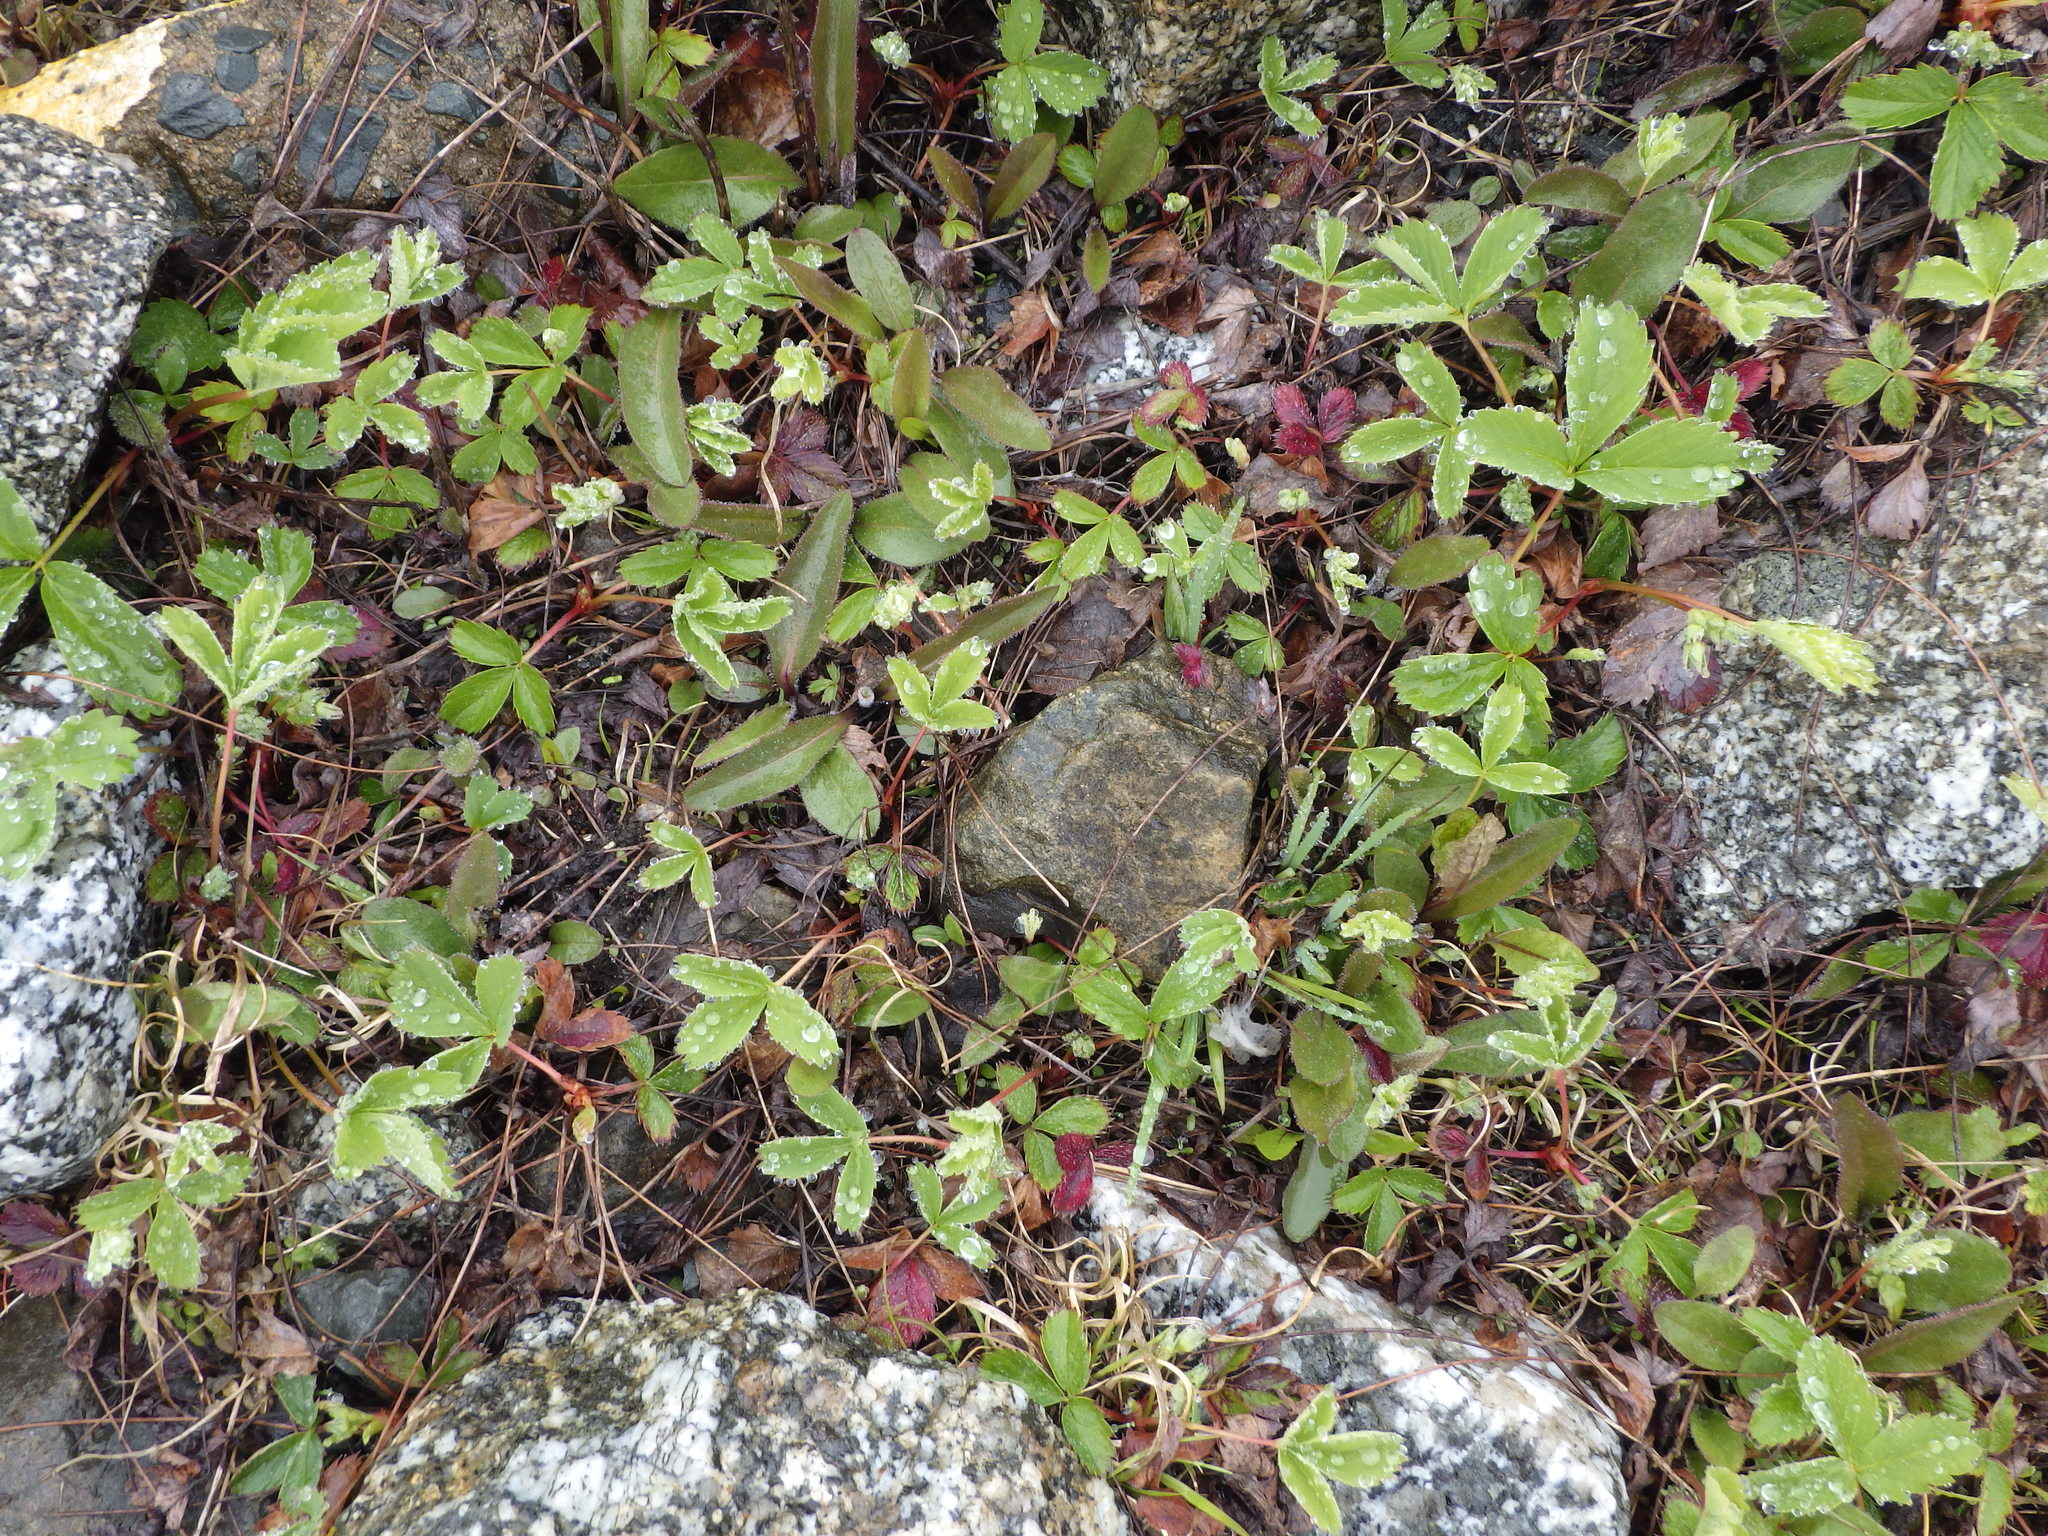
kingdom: Plantae
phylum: Tracheophyta
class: Magnoliopsida
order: Rosales
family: Rosaceae
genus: Fragaria
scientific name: Fragaria virginiana
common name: Thickleaved wild strawberry
